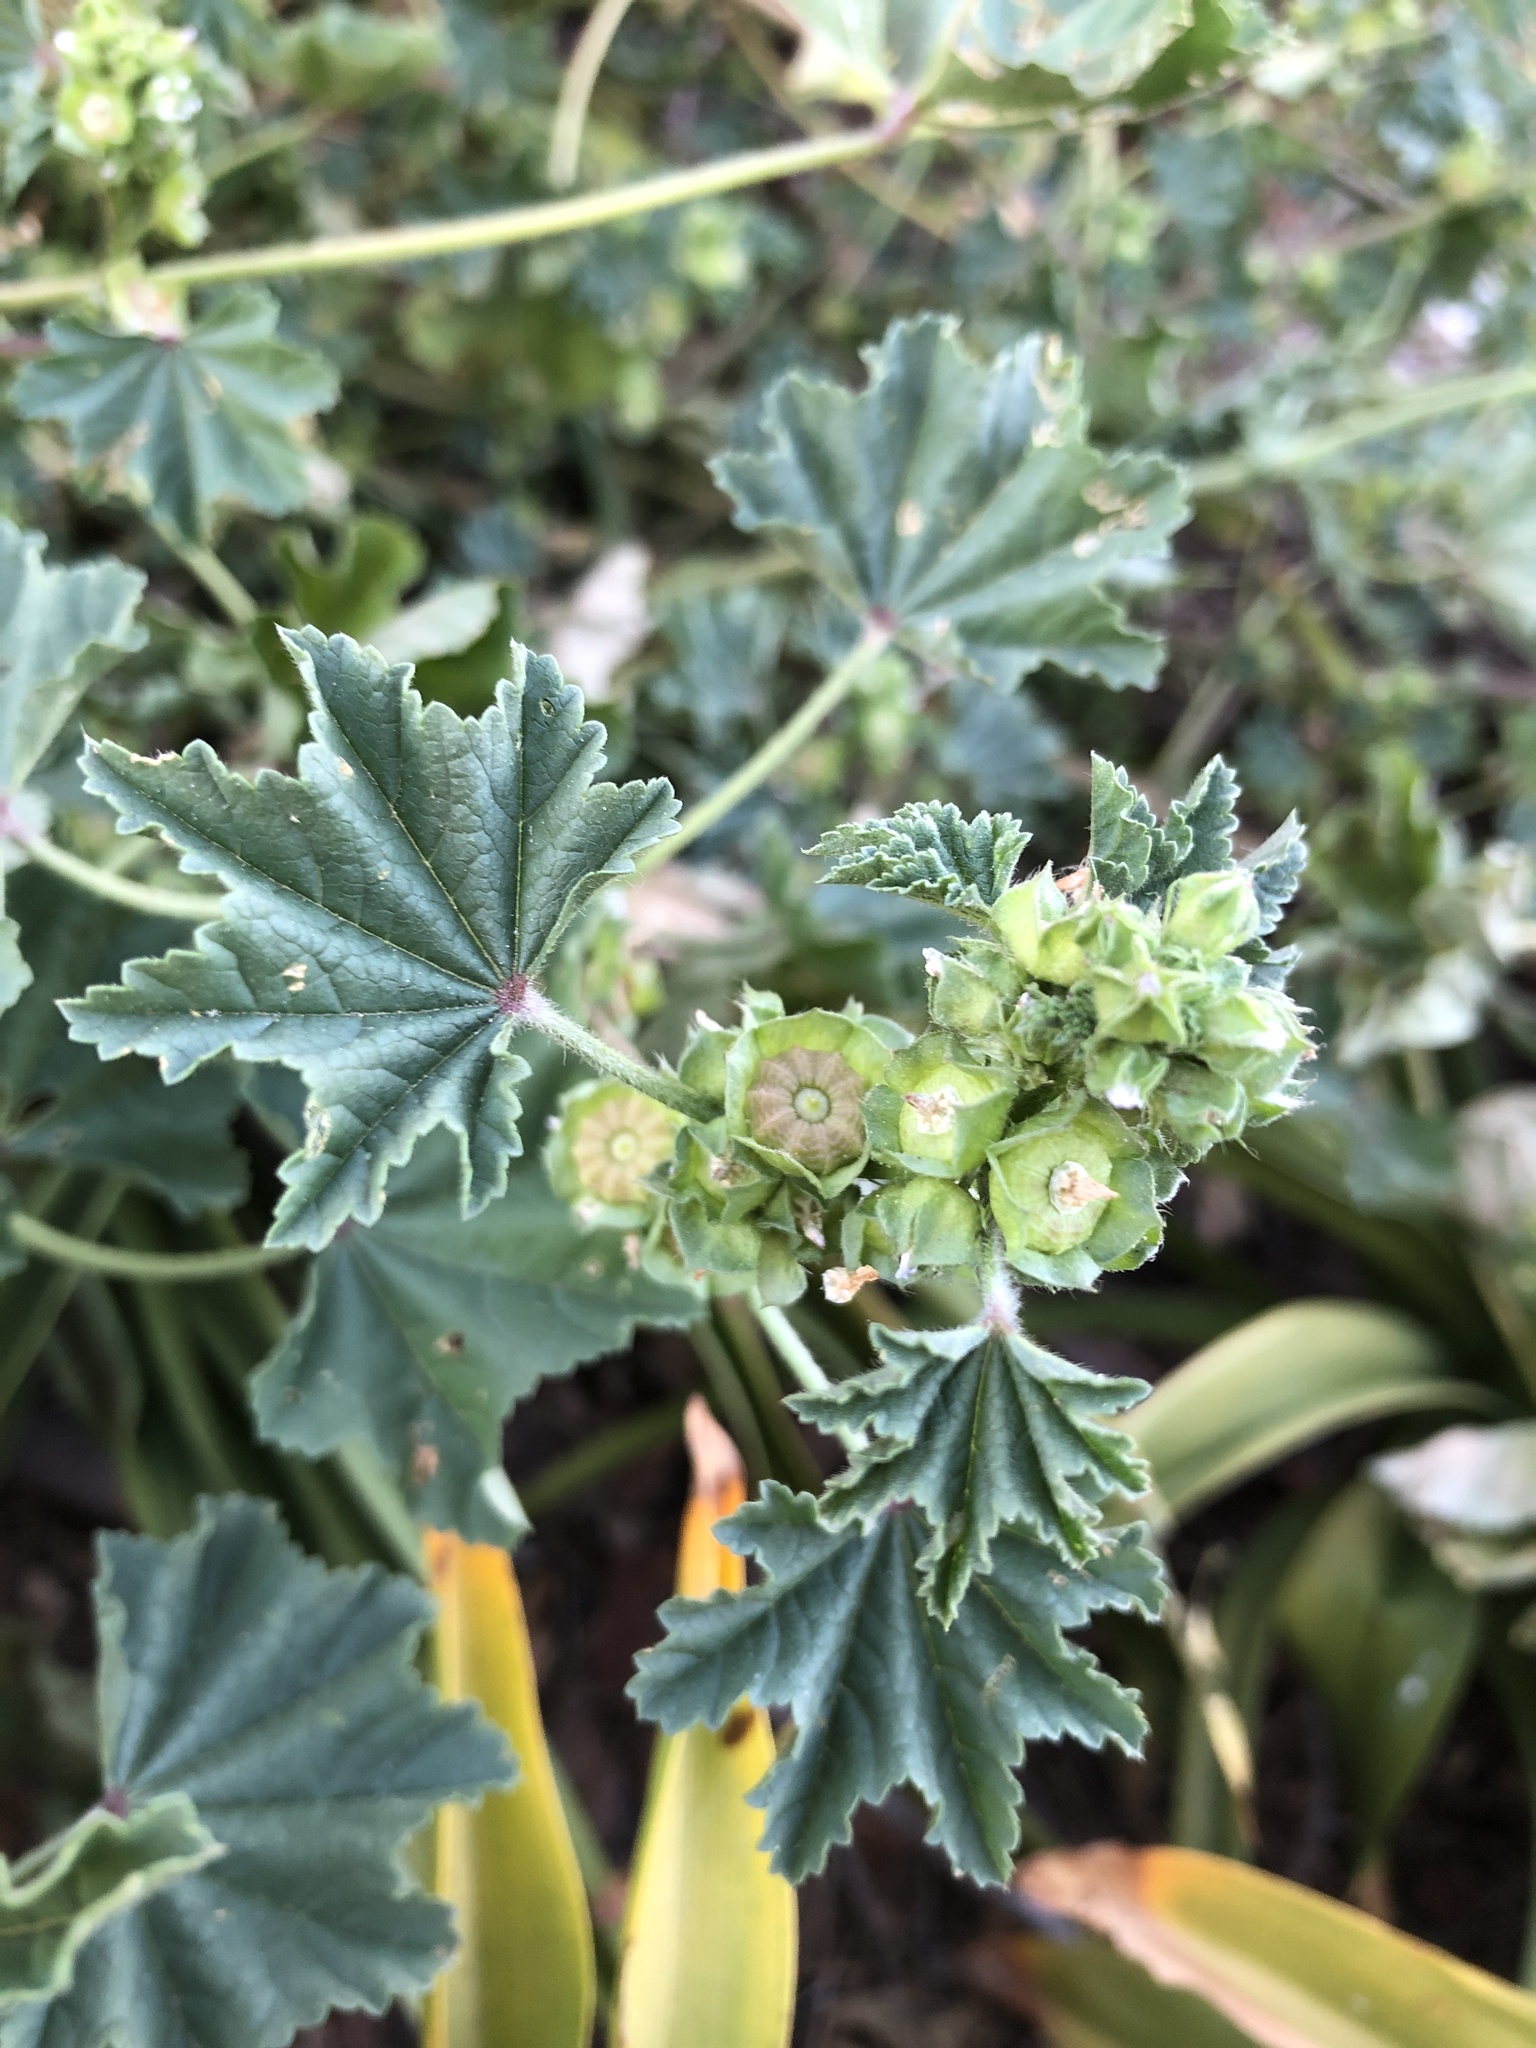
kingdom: Plantae
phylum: Tracheophyta
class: Magnoliopsida
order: Malvales
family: Malvaceae
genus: Malva
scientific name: Malva parviflora
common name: Least mallow
